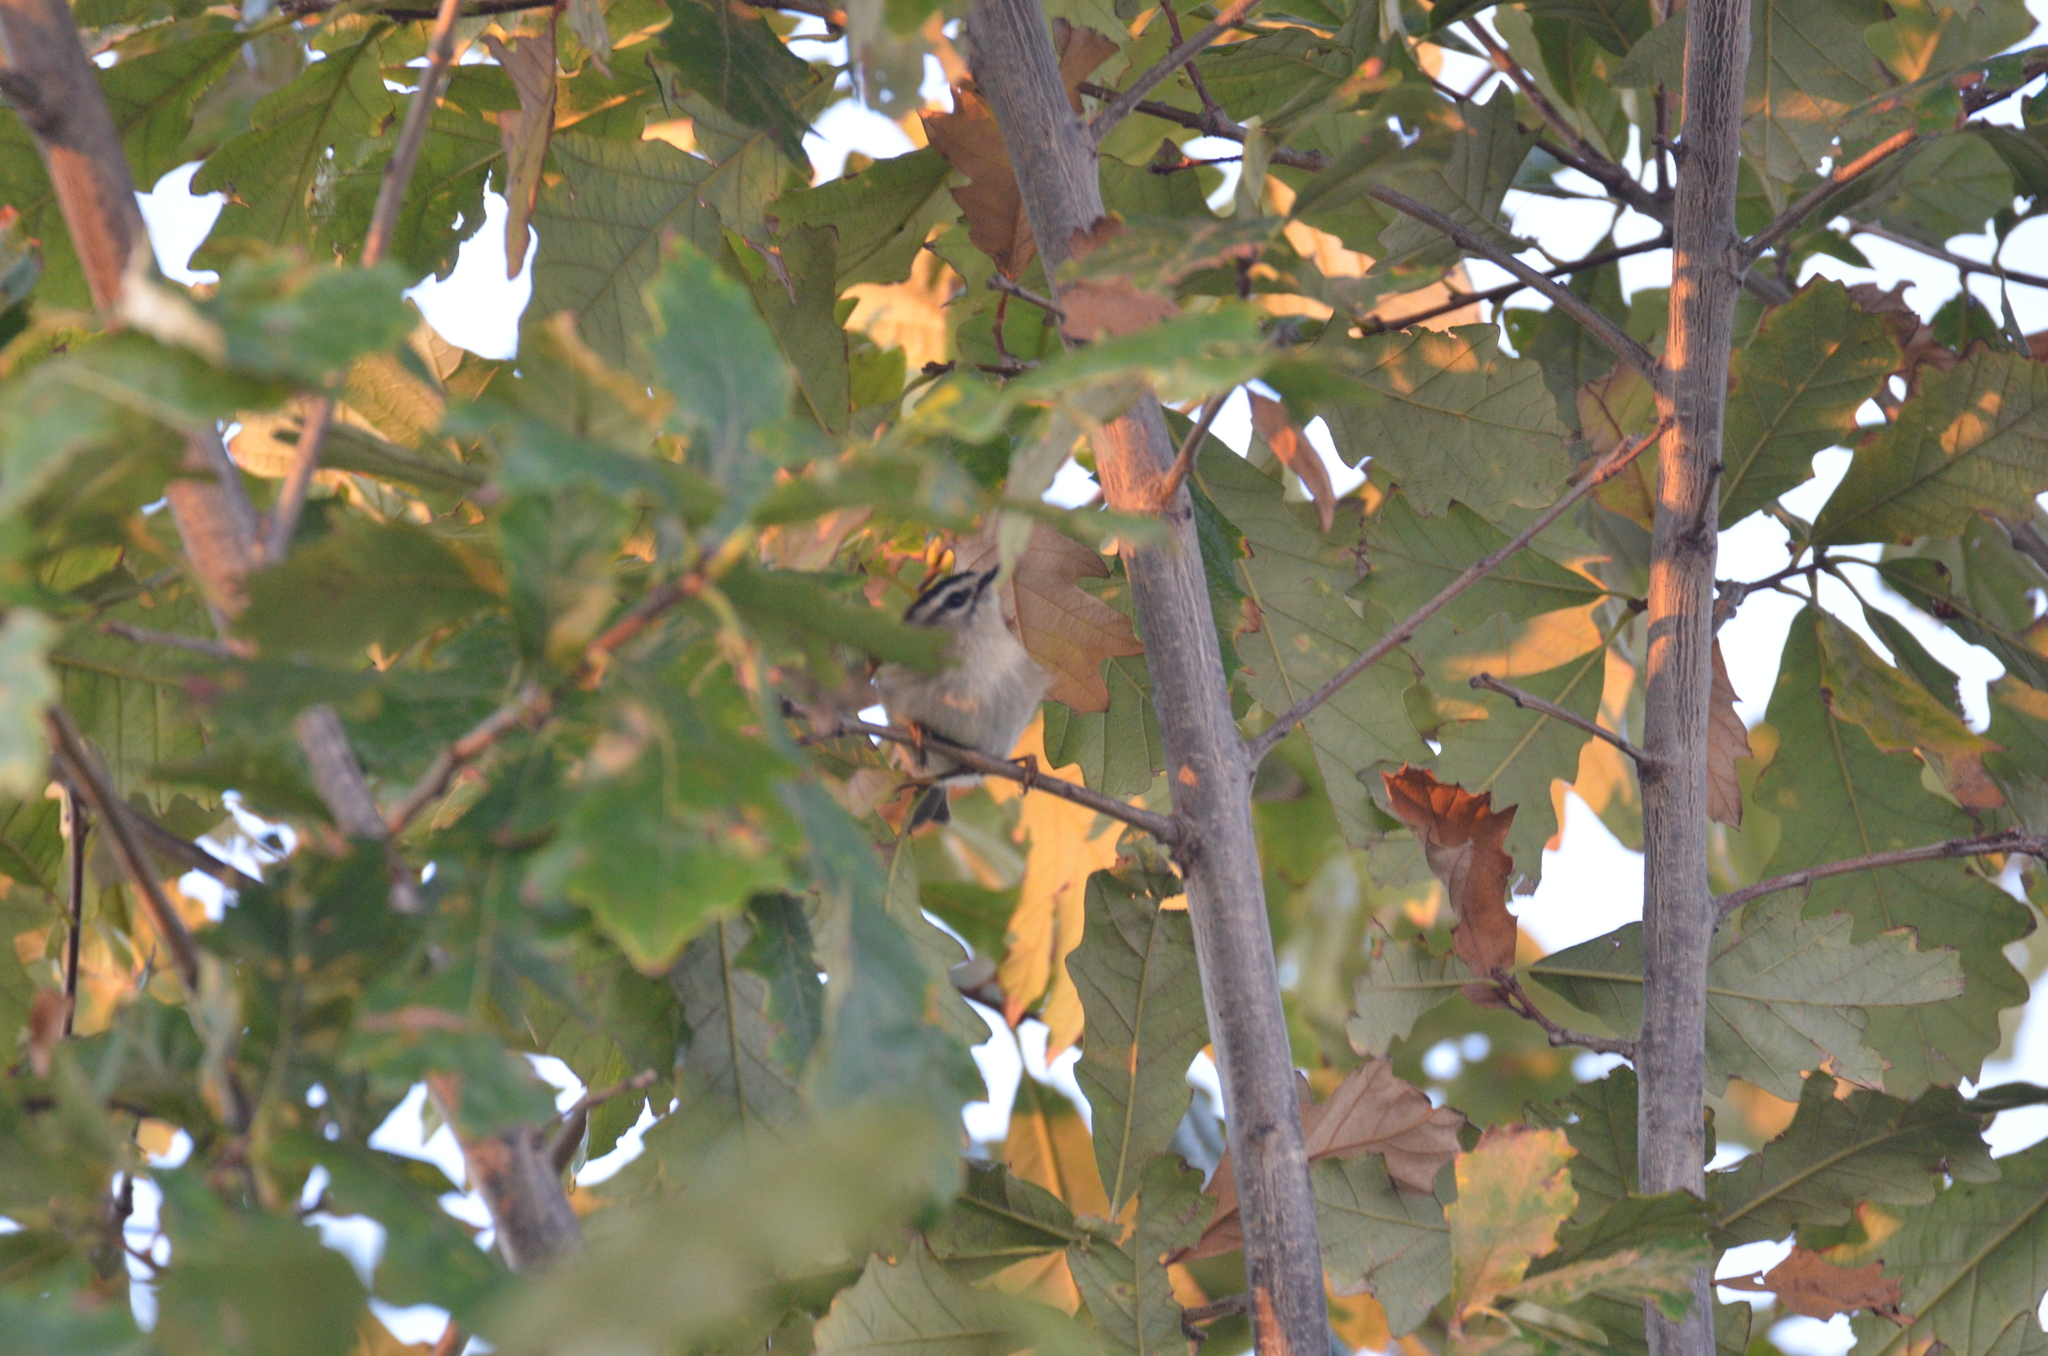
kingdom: Animalia
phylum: Chordata
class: Aves
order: Passeriformes
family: Regulidae
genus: Regulus
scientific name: Regulus satrapa
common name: Golden-crowned kinglet
